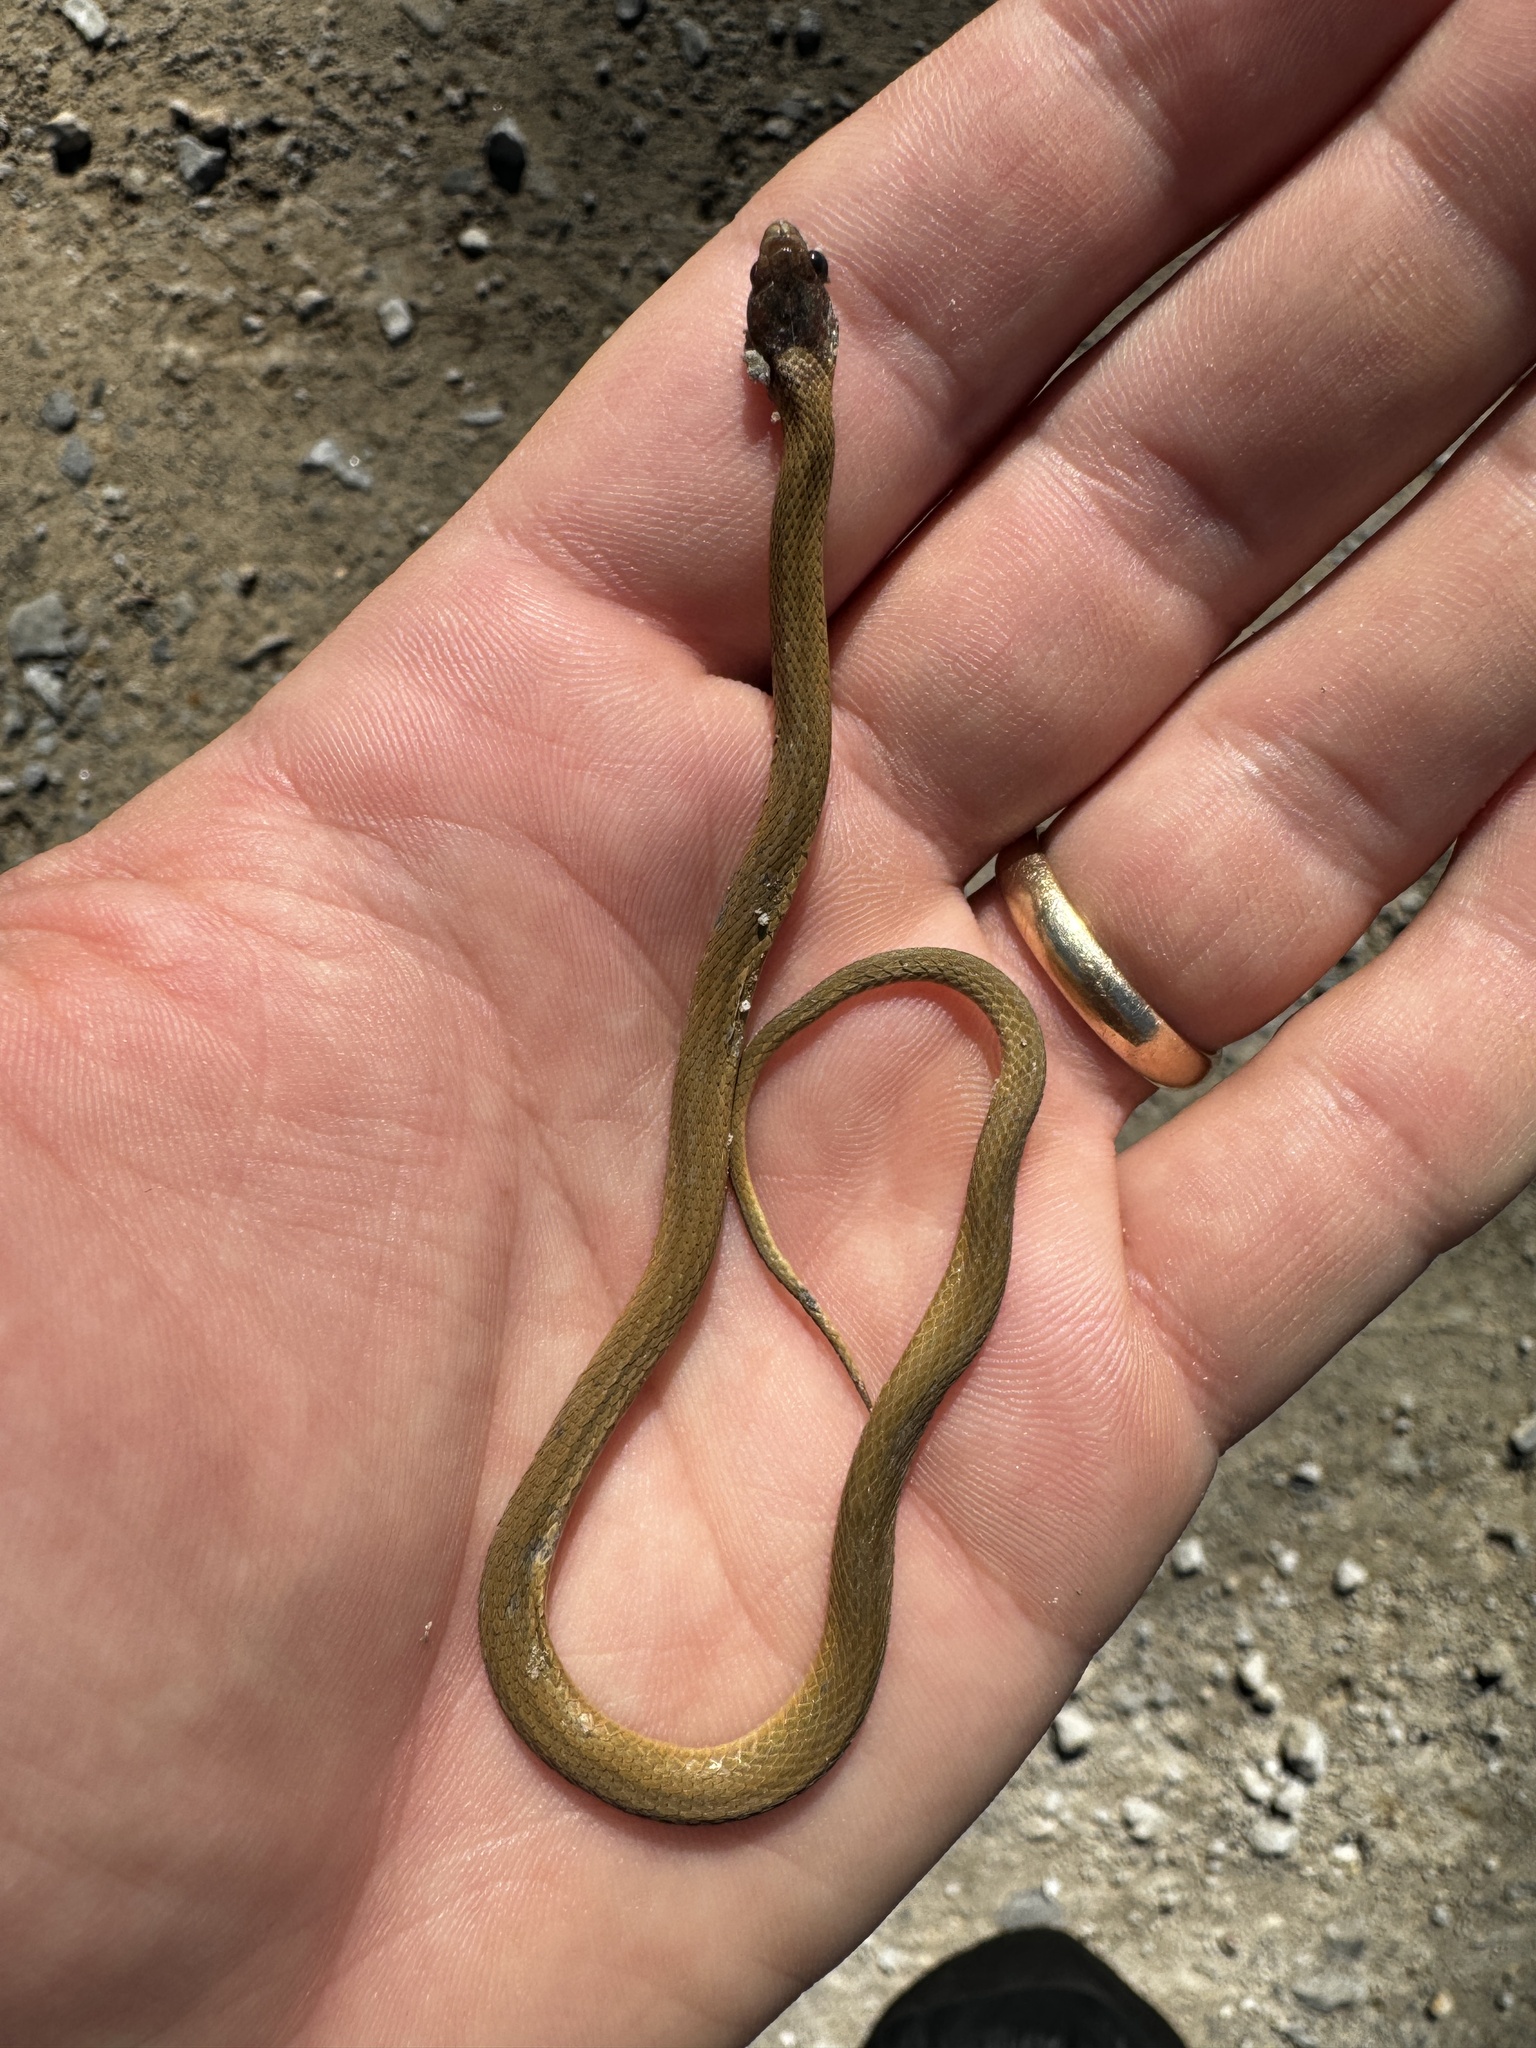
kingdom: Animalia
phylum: Chordata
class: Squamata
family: Colubridae
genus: Storeria
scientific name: Storeria occipitomaculata
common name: Redbelly snake
